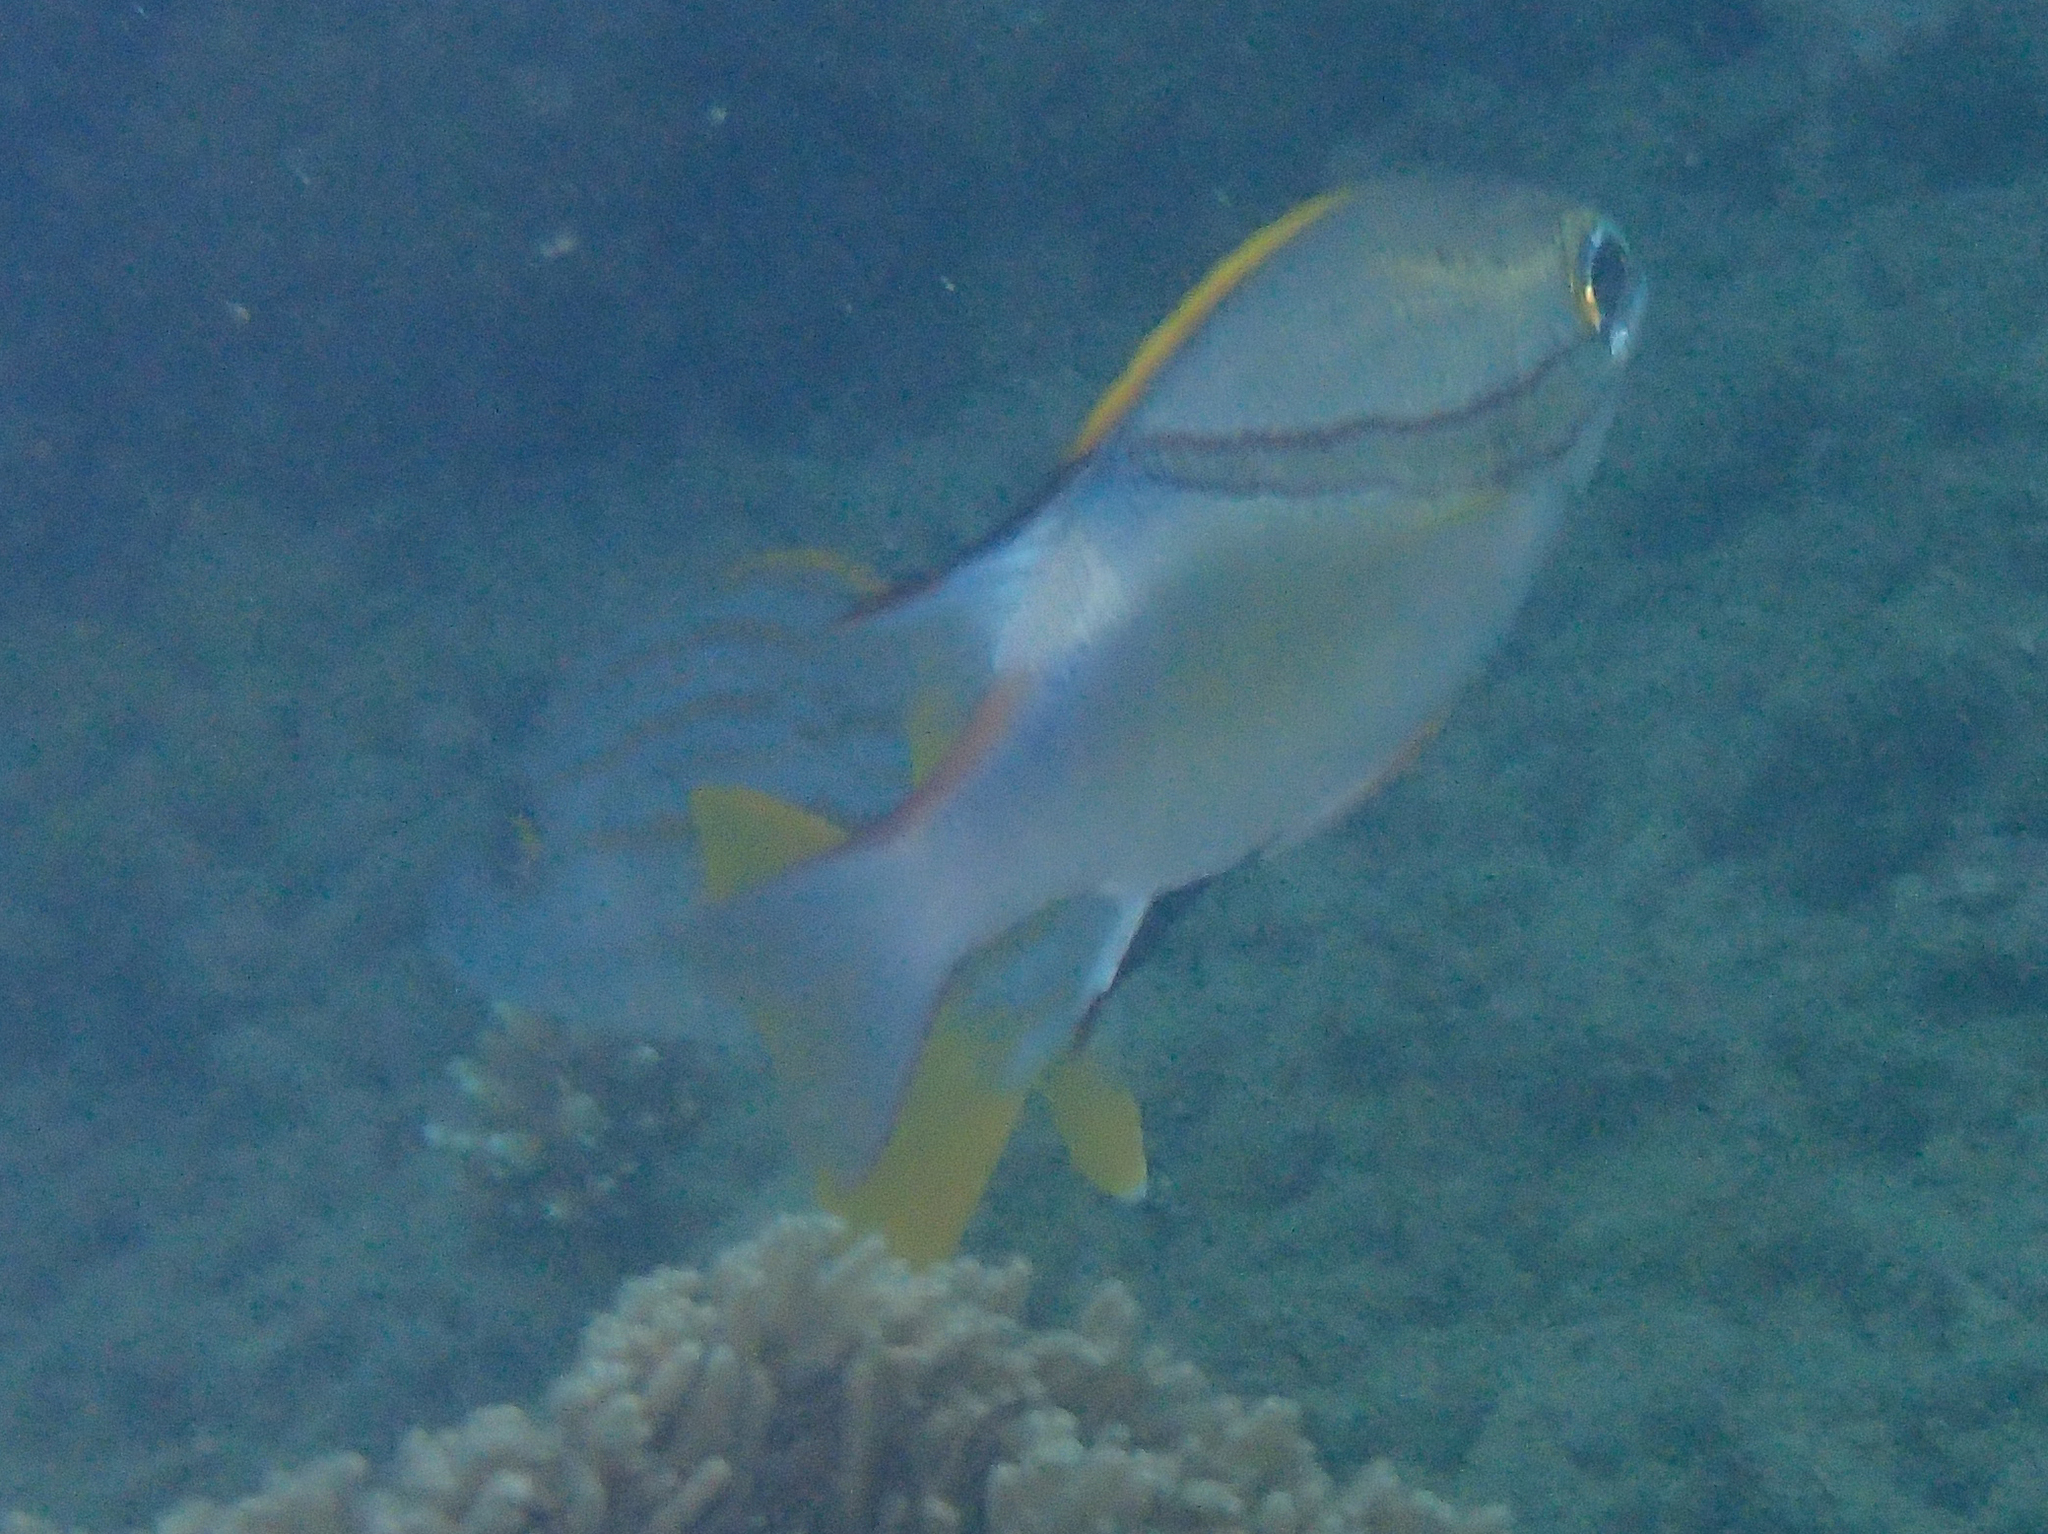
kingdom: Animalia
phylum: Chordata
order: Perciformes
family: Nemipteridae
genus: Scolopsis
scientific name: Scolopsis bilineata
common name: Two-lined monocle bream
